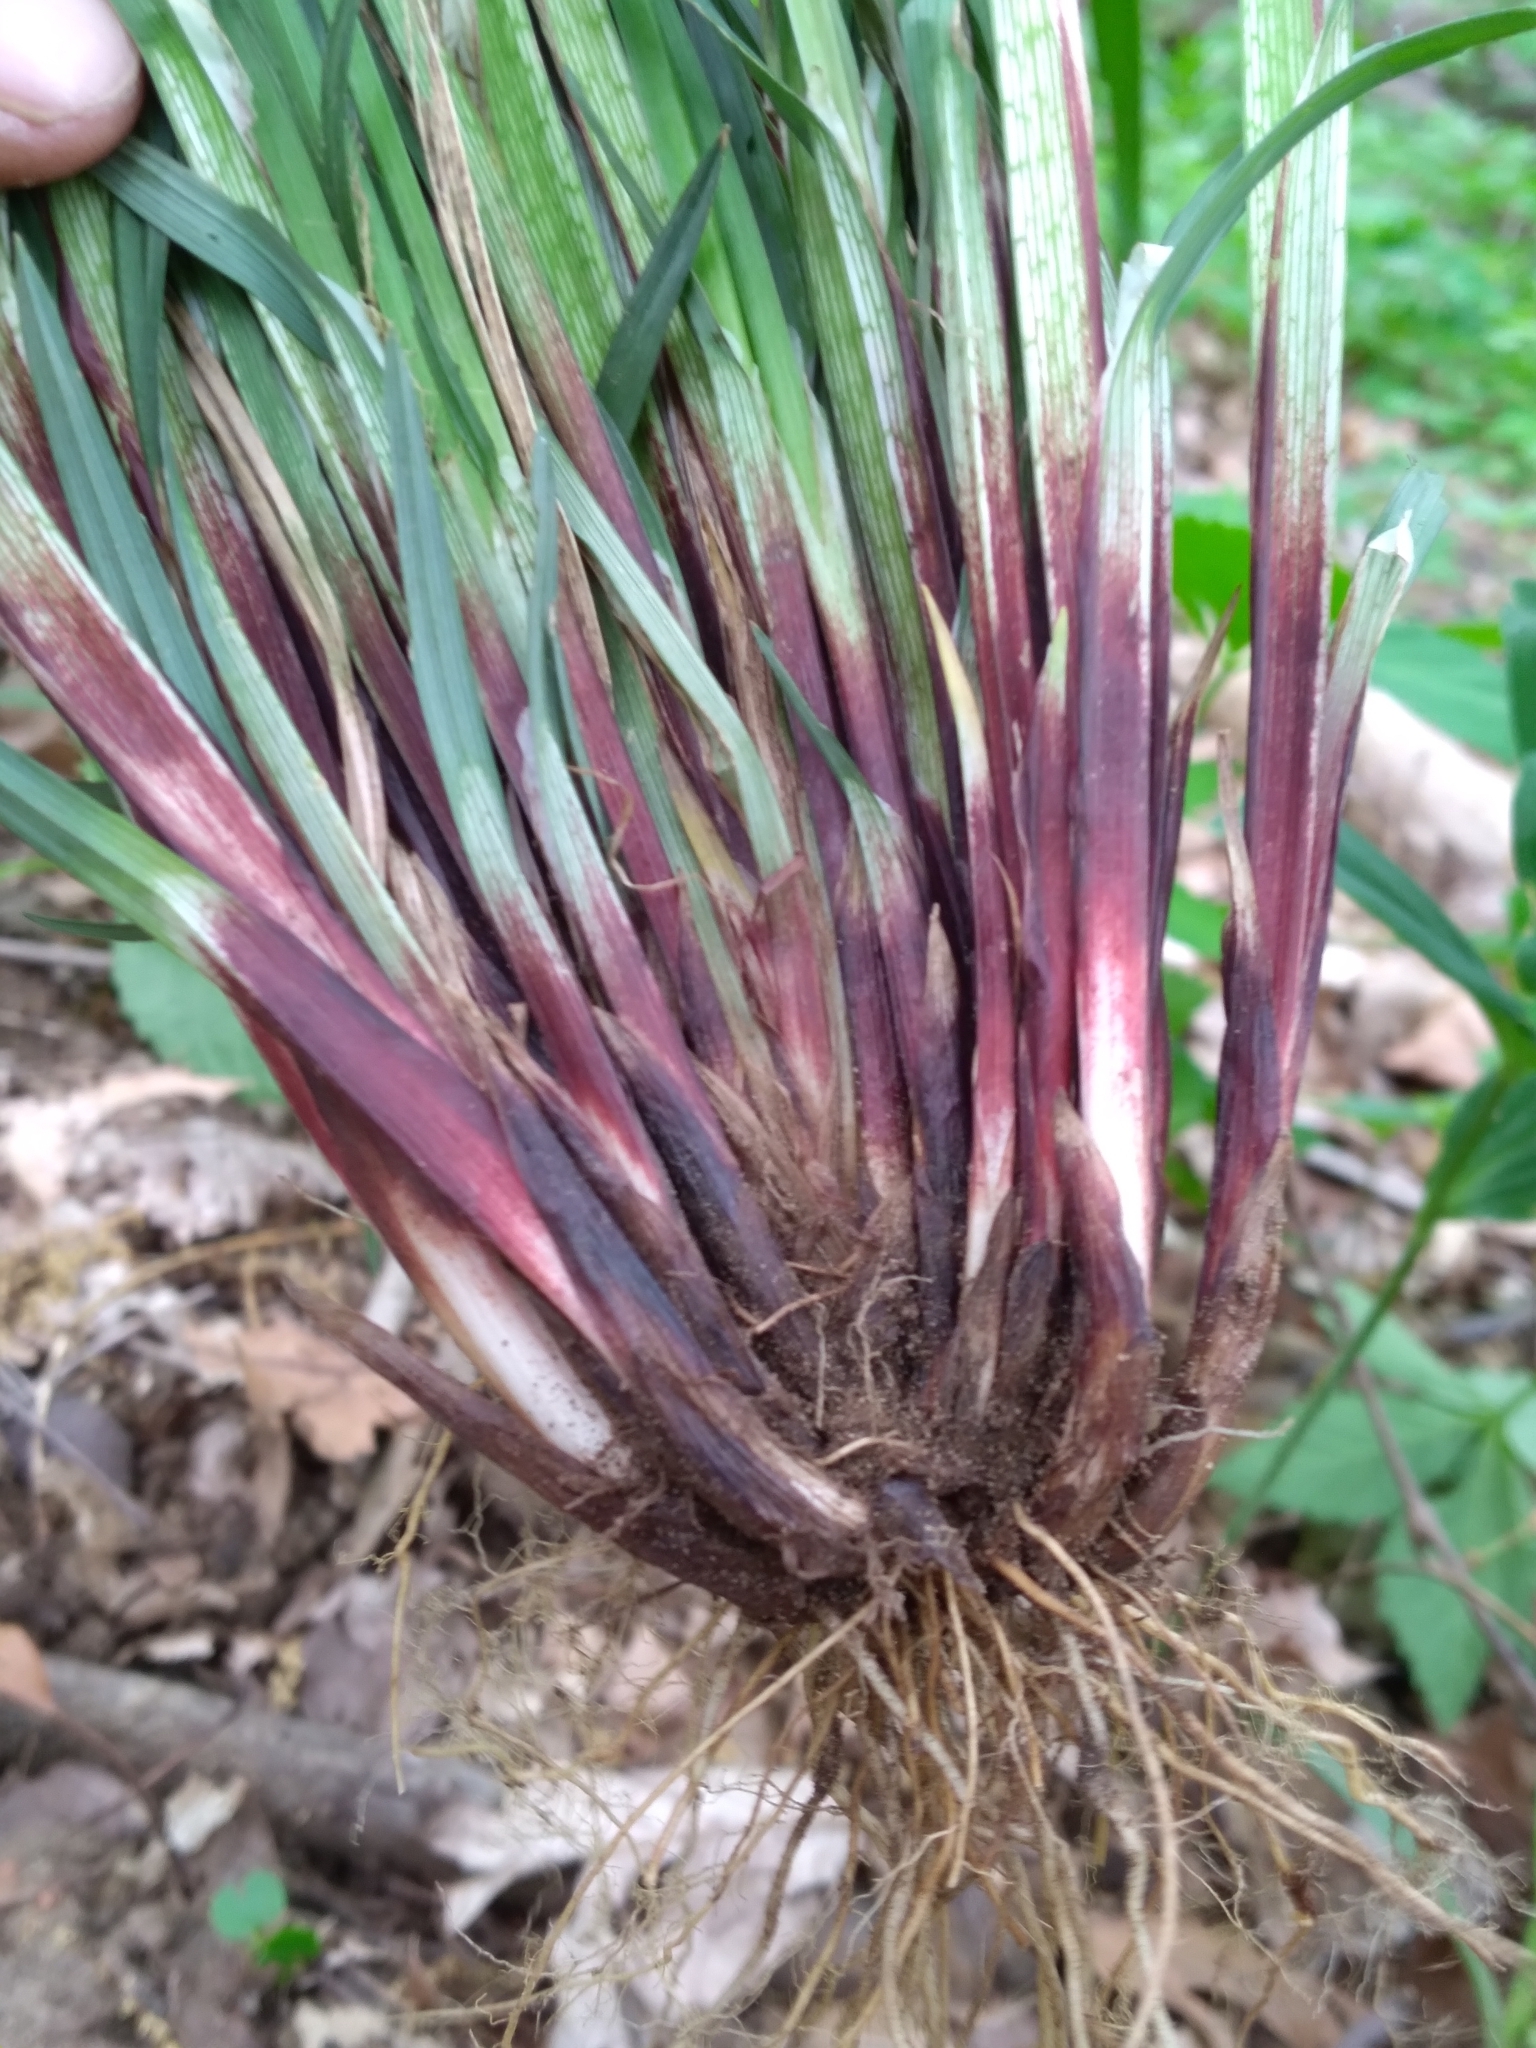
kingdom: Plantae
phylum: Tracheophyta
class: Liliopsida
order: Poales
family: Cyperaceae
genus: Carex
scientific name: Carex purpurifera
